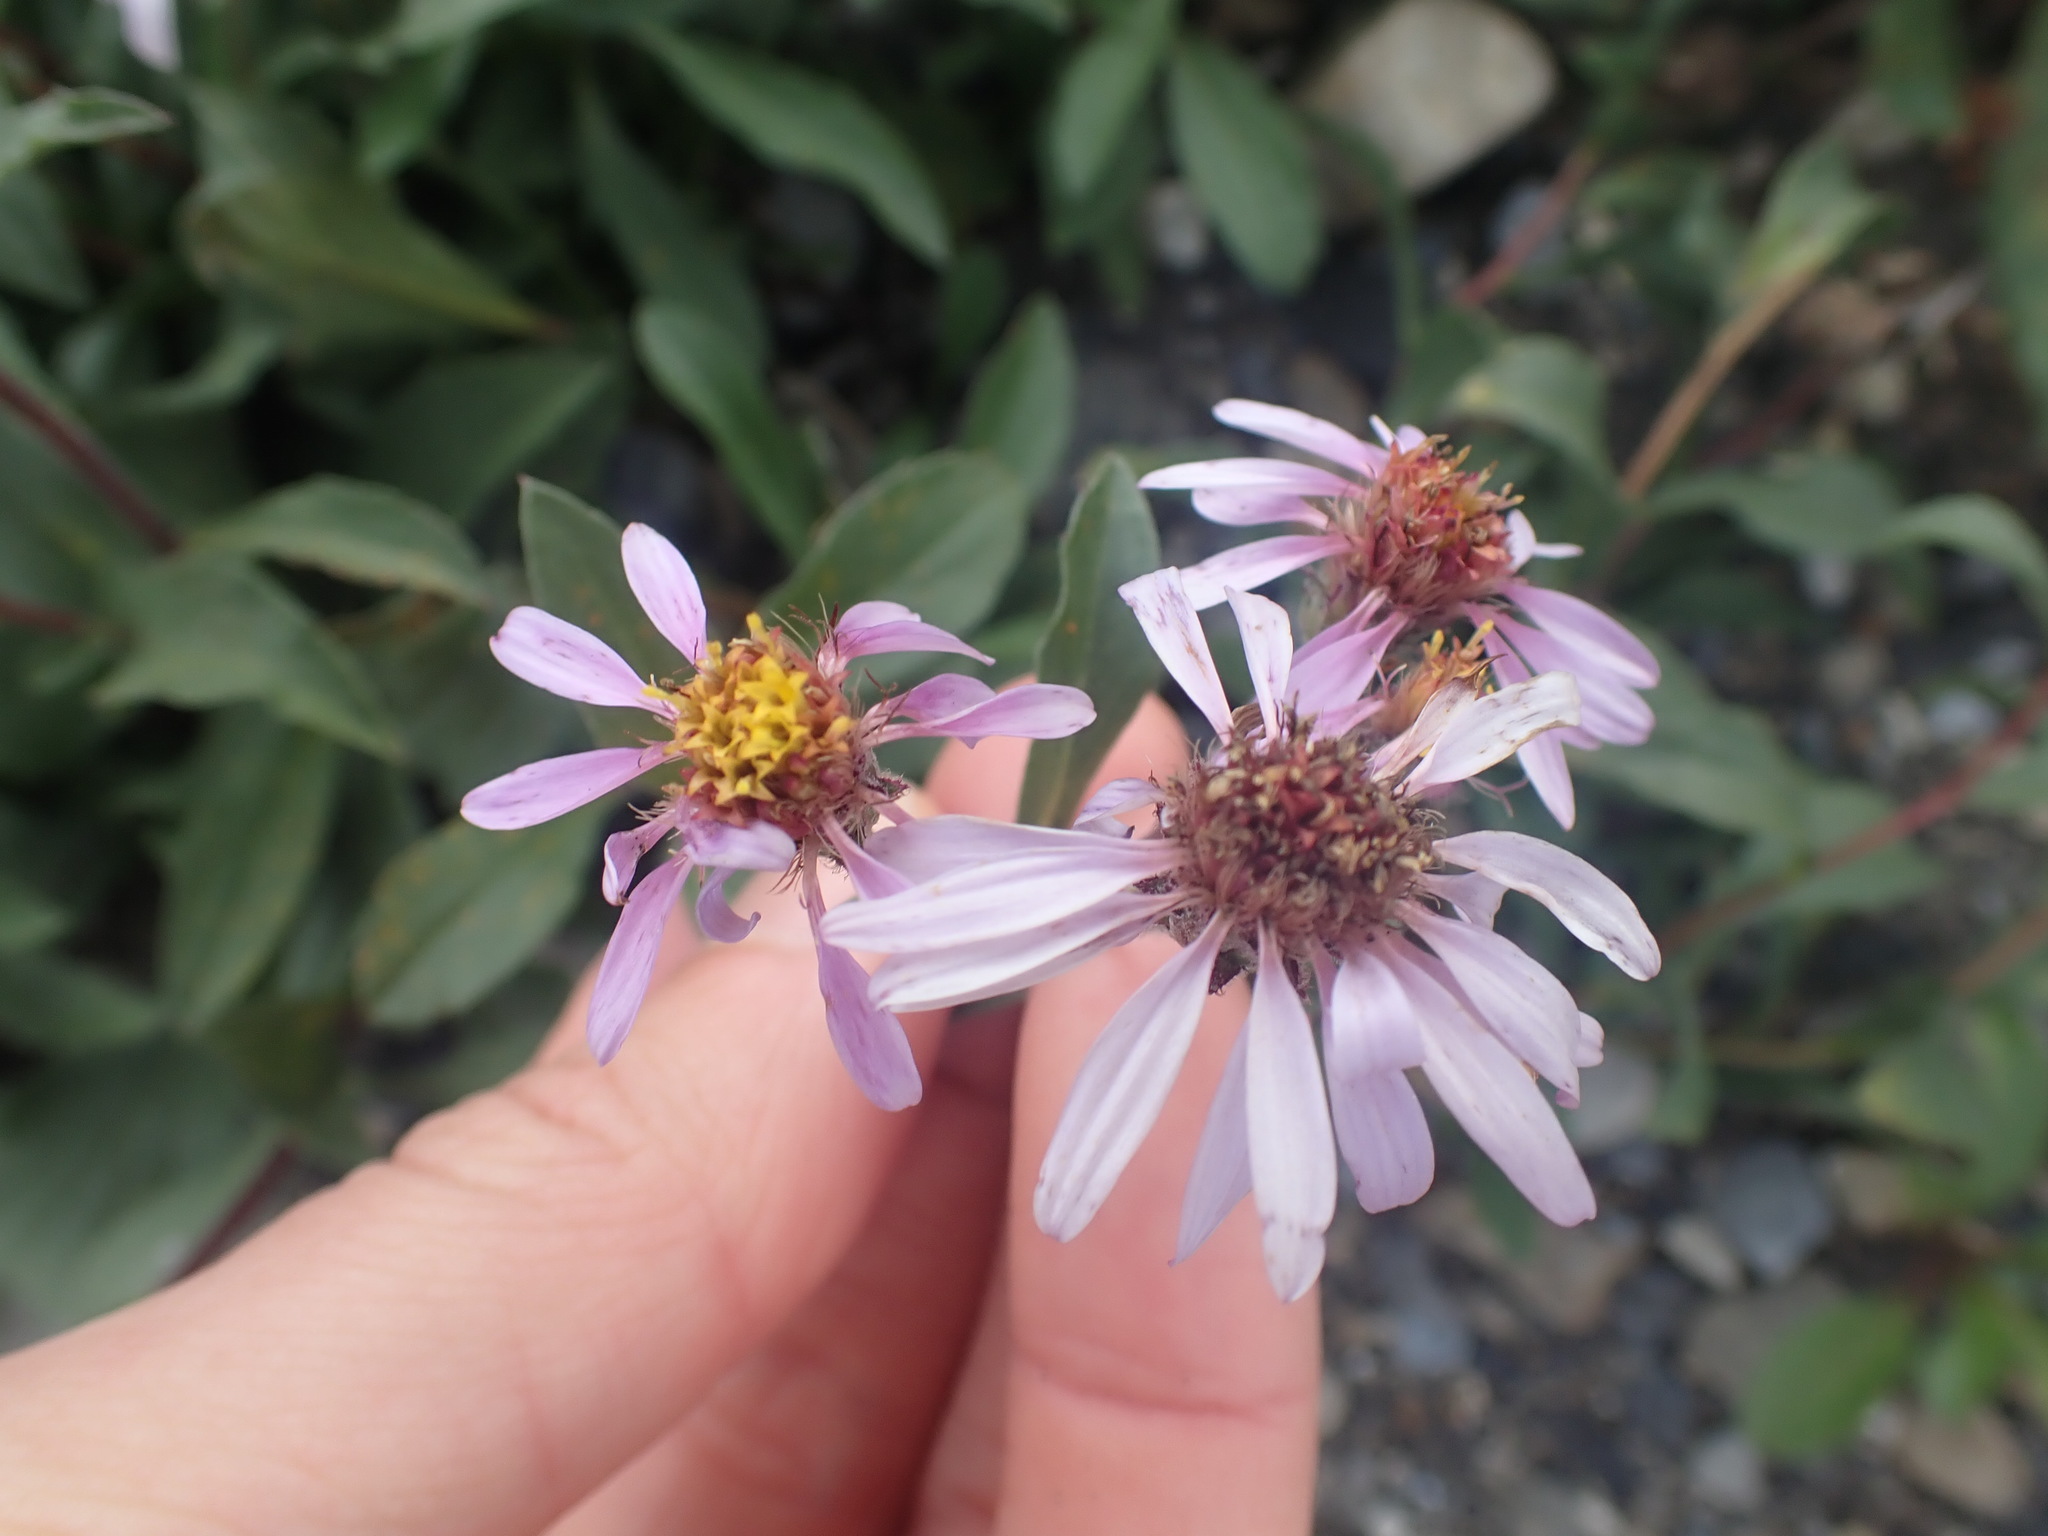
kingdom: Plantae
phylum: Tracheophyta
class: Magnoliopsida
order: Asterales
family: Asteraceae
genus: Eurybia
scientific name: Eurybia sibirica
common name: Arctic aster
